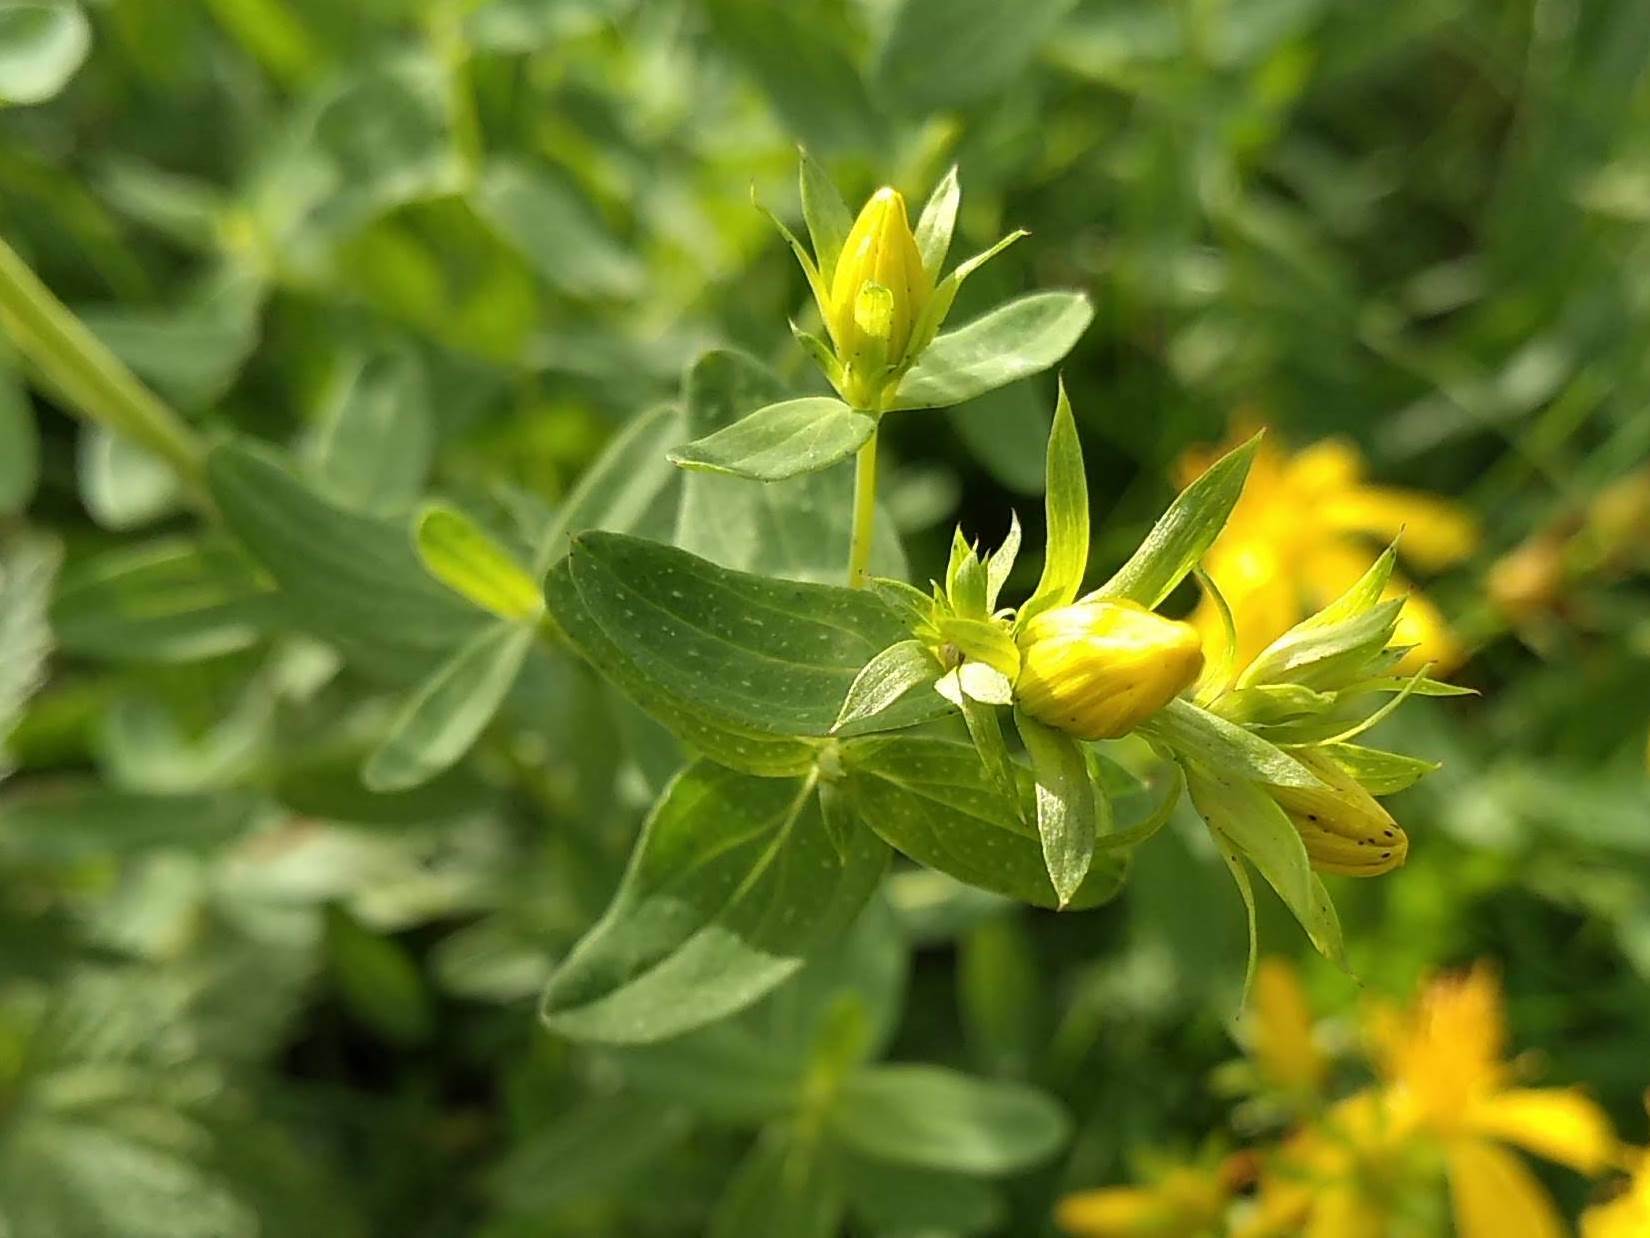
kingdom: Plantae
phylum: Tracheophyta
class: Magnoliopsida
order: Malpighiales
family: Hypericaceae
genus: Hypericum
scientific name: Hypericum perforatum
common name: Common st. johnswort
